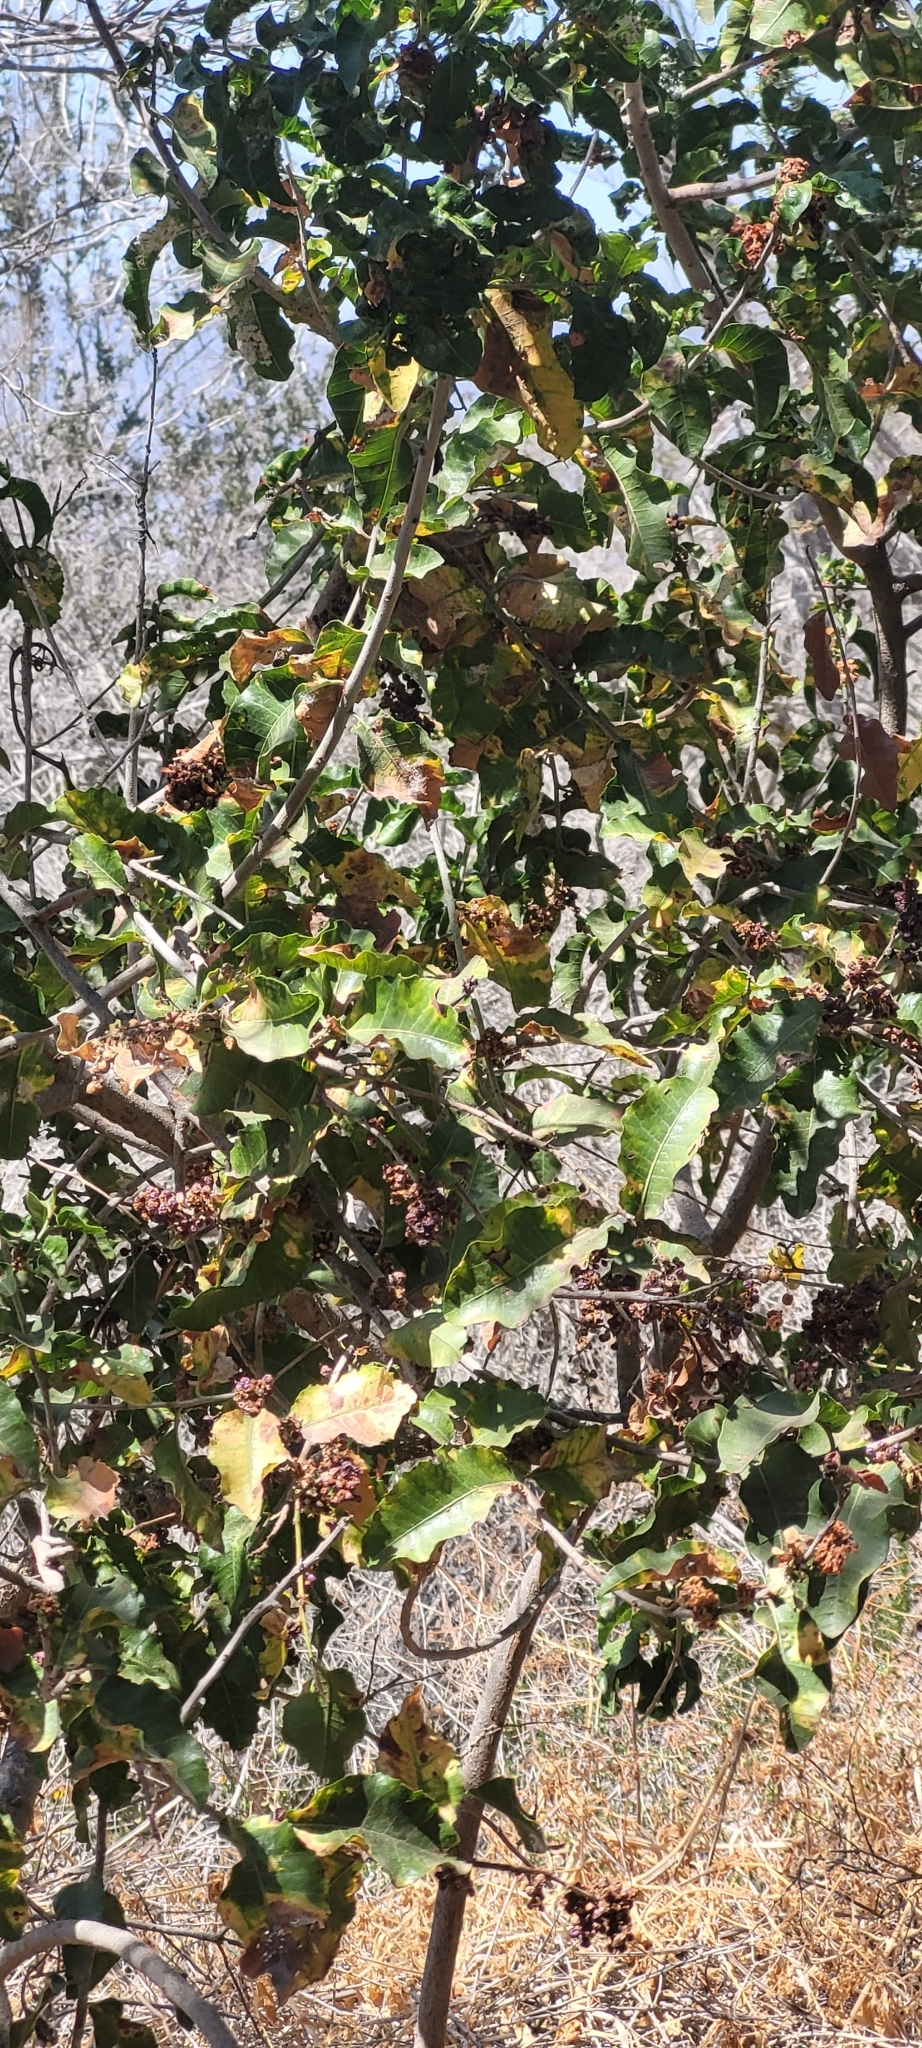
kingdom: Plantae
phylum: Tracheophyta
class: Magnoliopsida
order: Sapindales
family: Anacardiaceae
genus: Schinus
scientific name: Schinus latifolia
